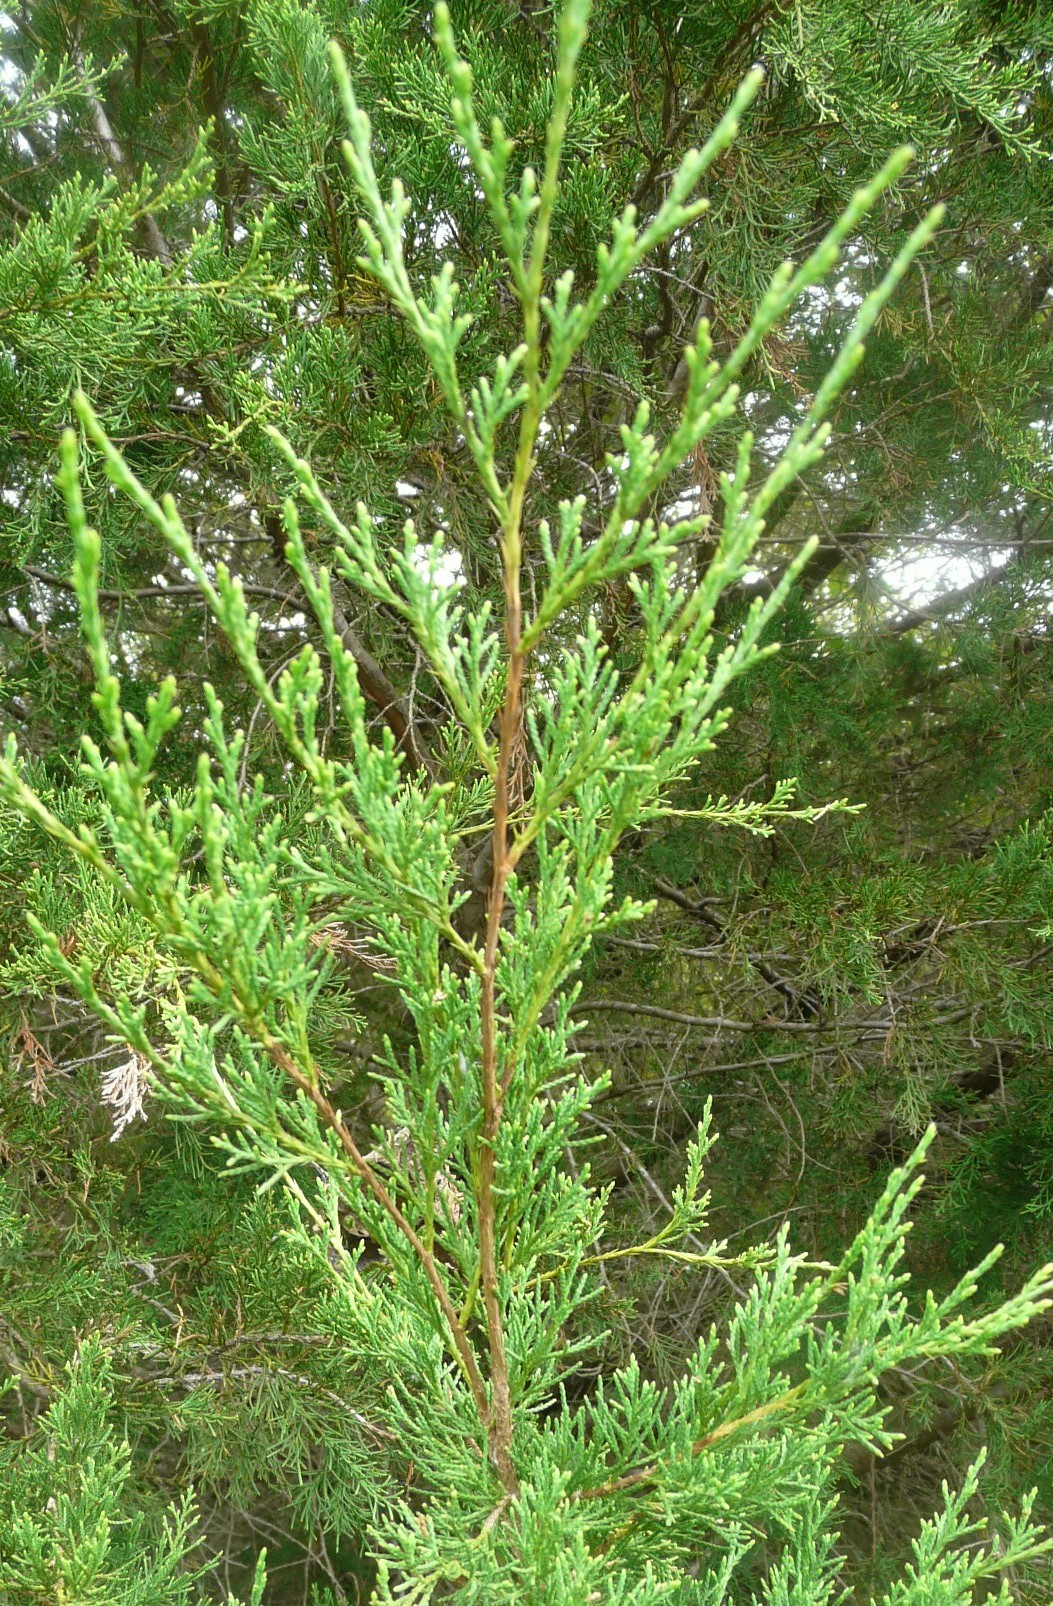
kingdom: Plantae
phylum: Tracheophyta
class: Pinopsida
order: Pinales
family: Cupressaceae
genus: Juniperus
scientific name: Juniperus virginiana
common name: Red juniper
